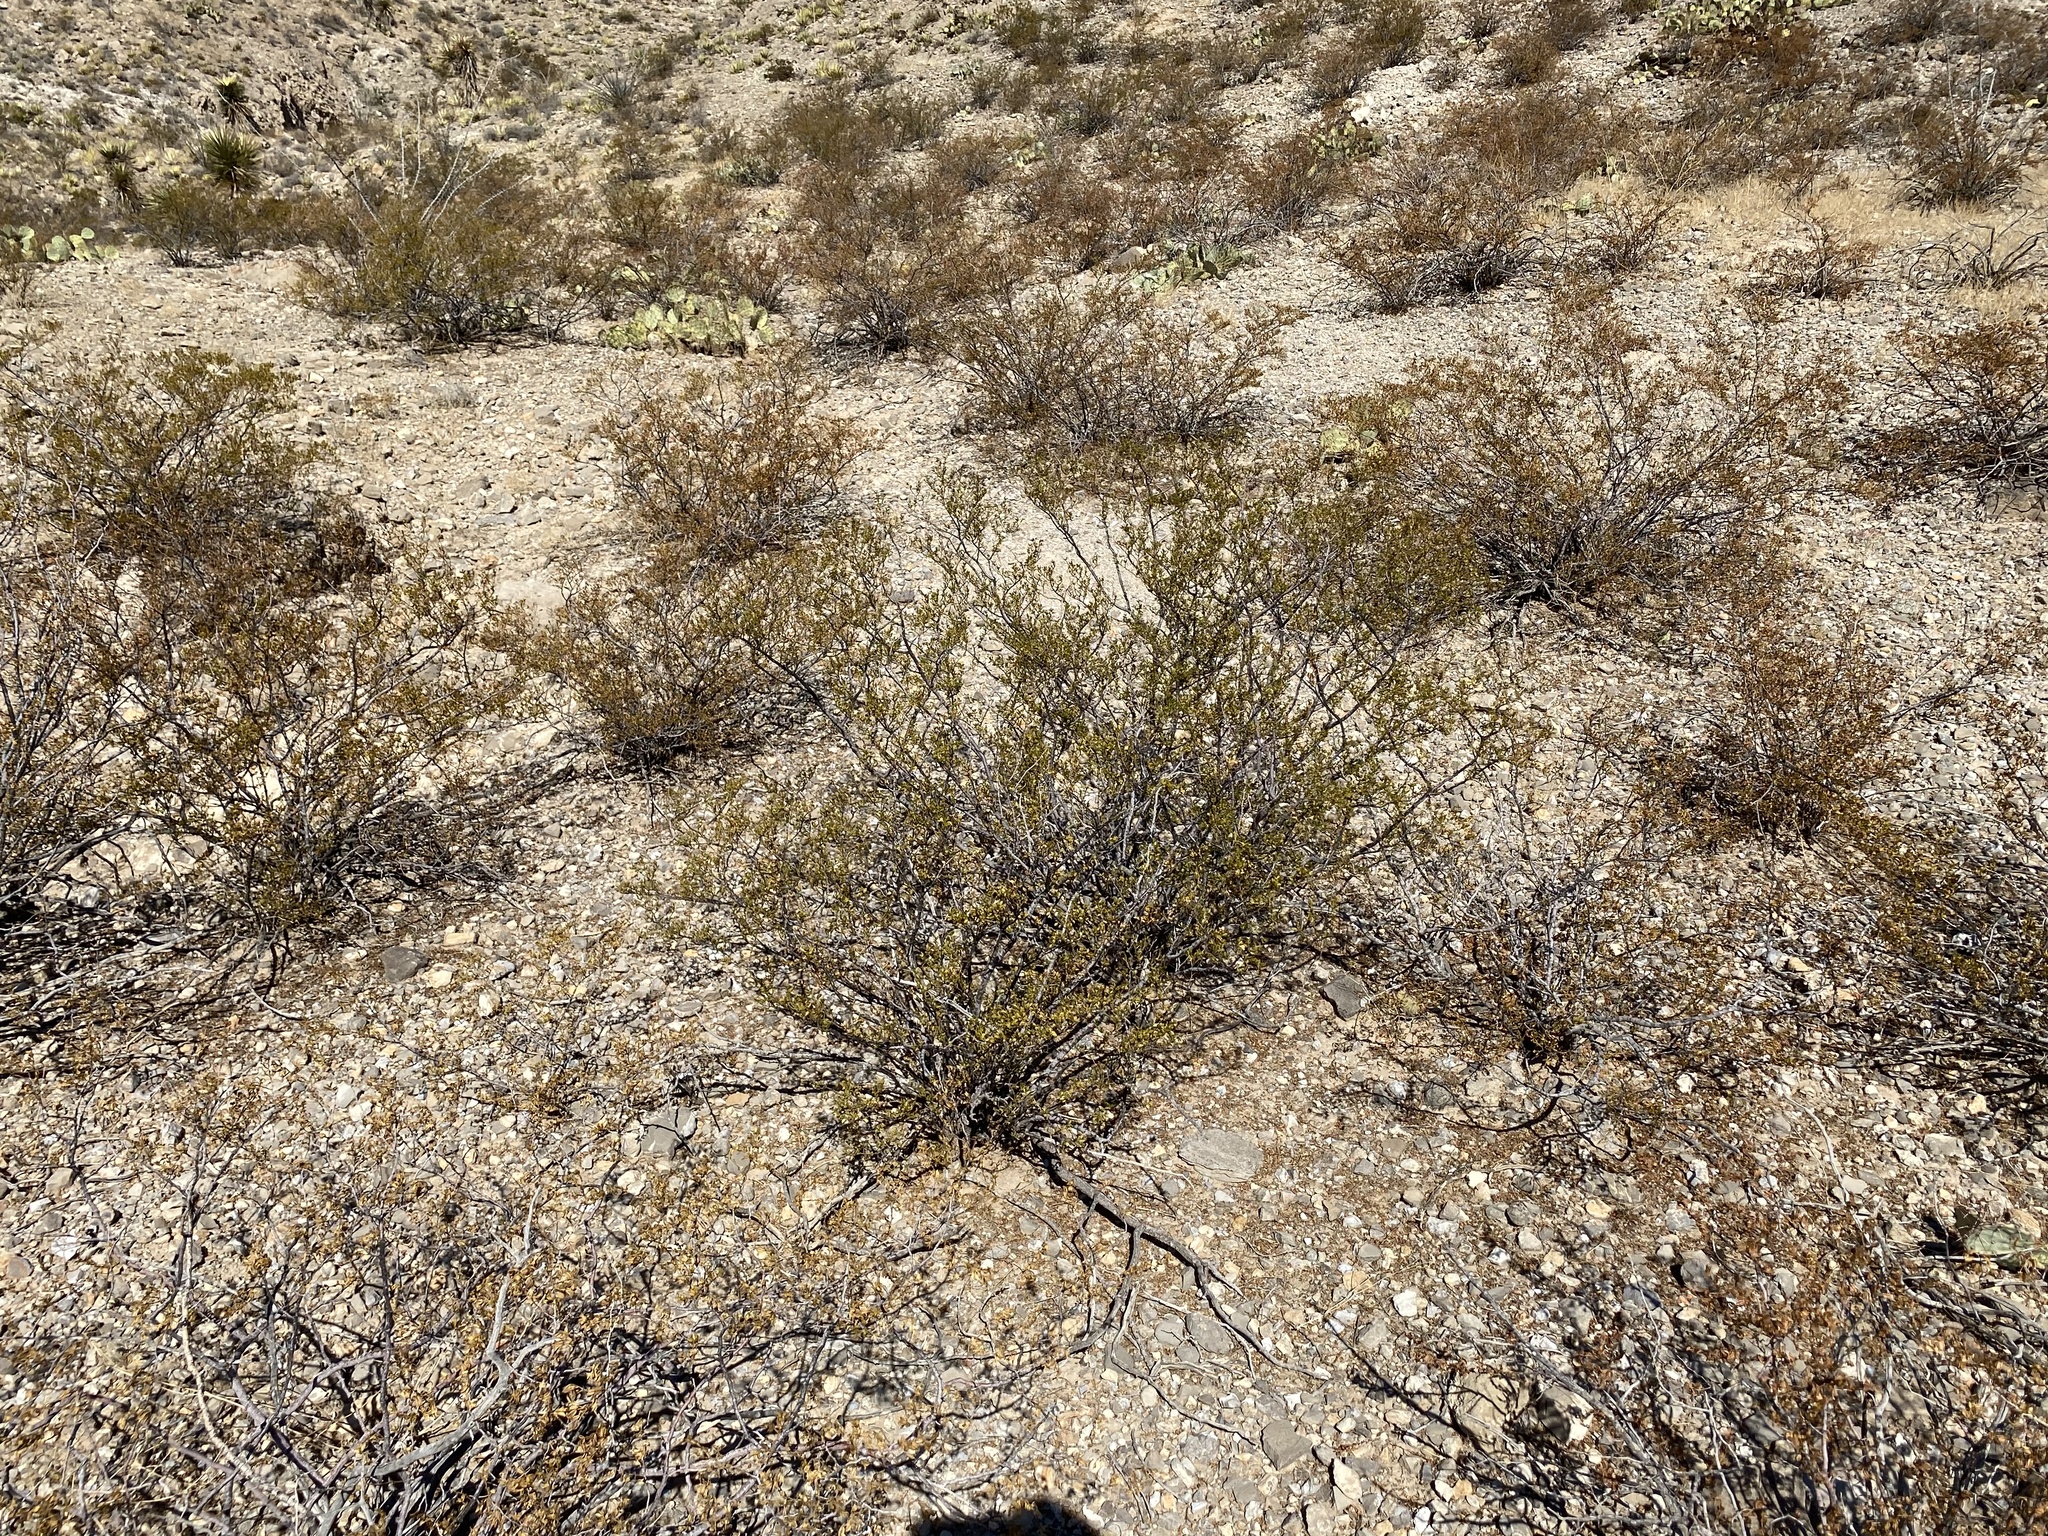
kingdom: Plantae
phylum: Tracheophyta
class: Magnoliopsida
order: Zygophyllales
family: Zygophyllaceae
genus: Larrea
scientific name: Larrea tridentata
